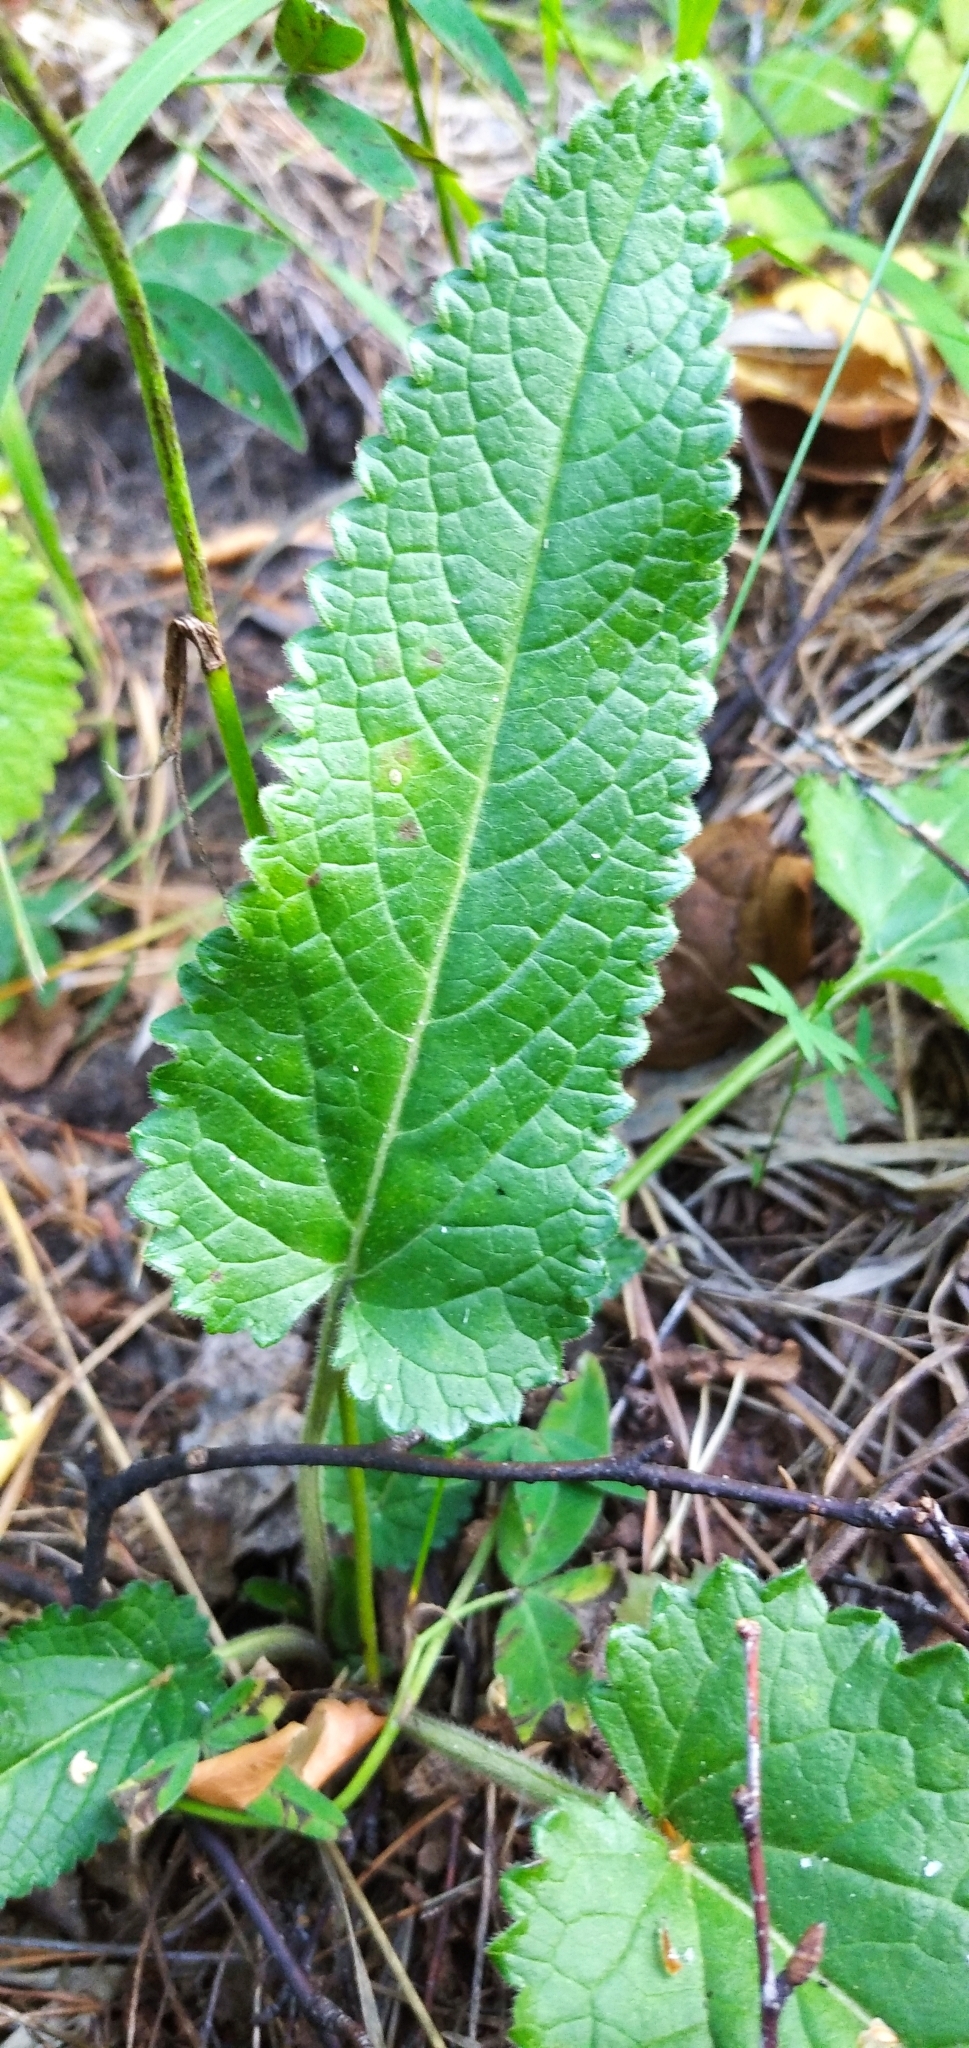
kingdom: Plantae
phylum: Tracheophyta
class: Magnoliopsida
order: Lamiales
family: Lamiaceae
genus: Betonica
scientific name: Betonica officinalis
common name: Bishop's-wort
